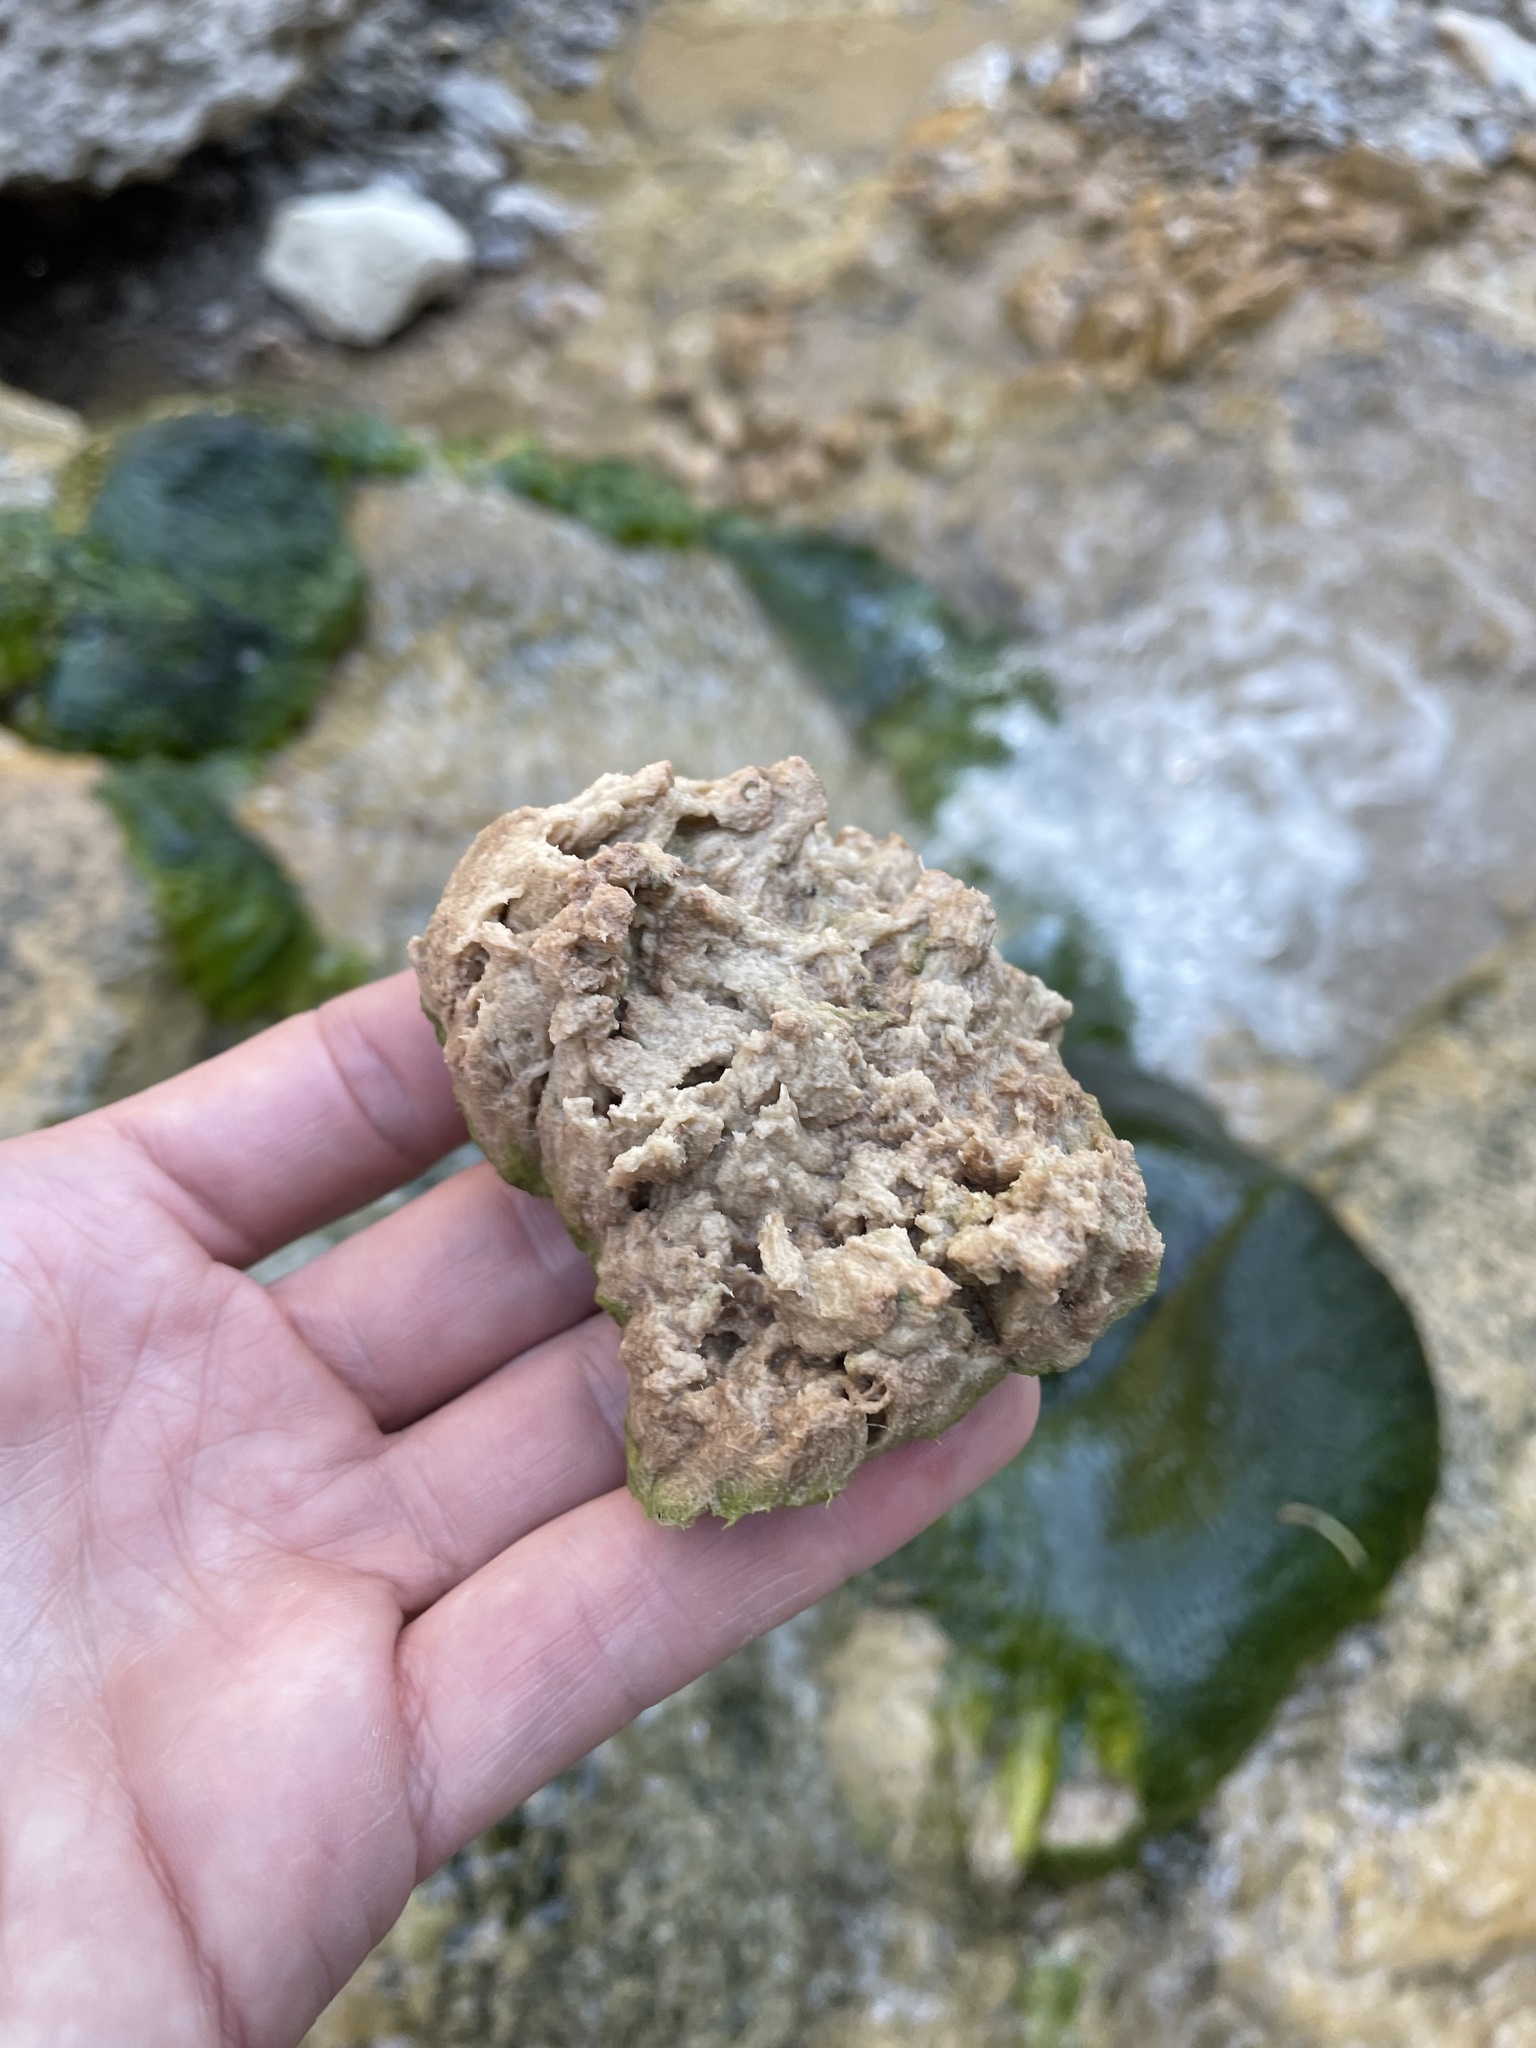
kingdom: Chromista
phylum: Ochrophyta
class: Xanthophyceae
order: Vaucheriales
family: Vaucheriaceae
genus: Vaucheria
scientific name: Vaucheria
